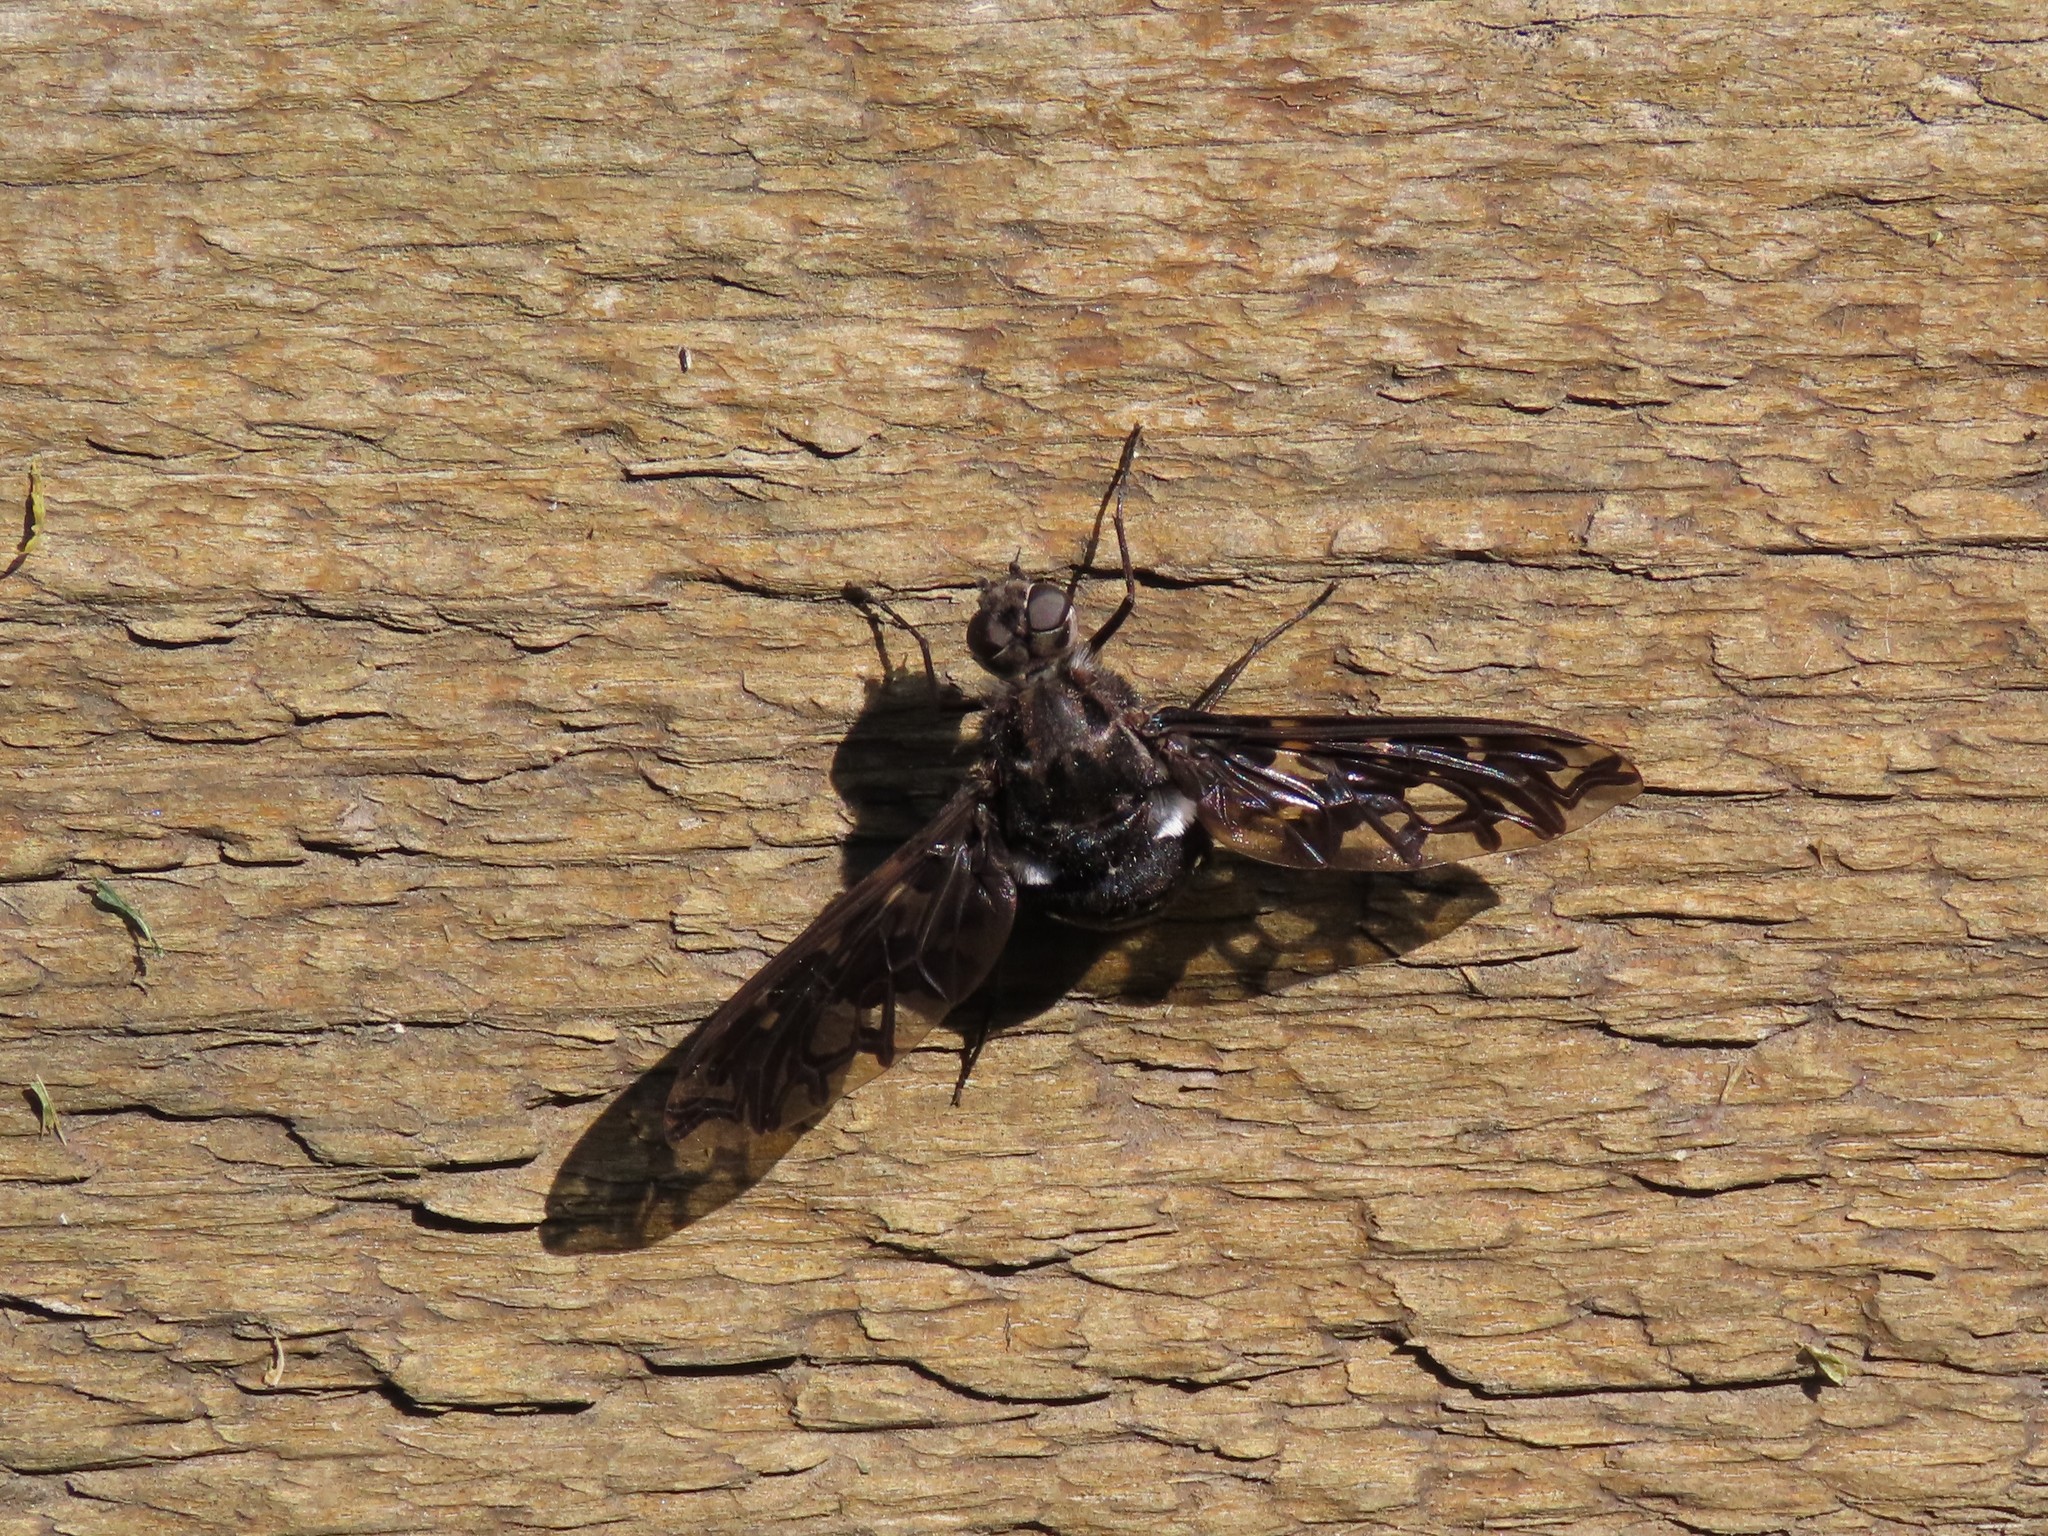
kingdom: Animalia
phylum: Arthropoda
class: Insecta
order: Diptera
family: Bombyliidae
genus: Xenox
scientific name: Xenox tigrinus
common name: Tiger bee fly
